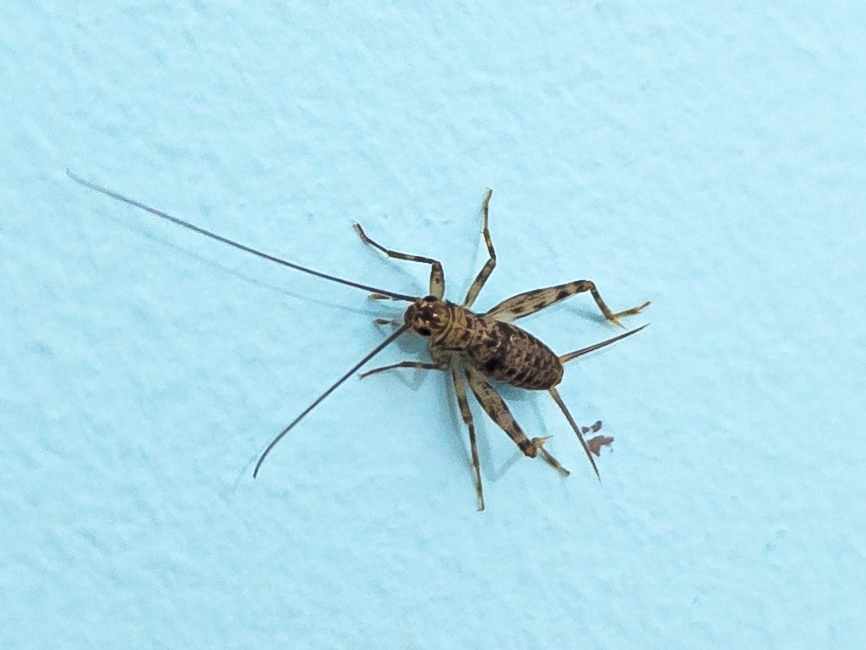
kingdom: Animalia
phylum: Arthropoda
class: Insecta
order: Orthoptera
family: Gryllidae
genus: Petaloptila
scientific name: Petaloptila galaica
